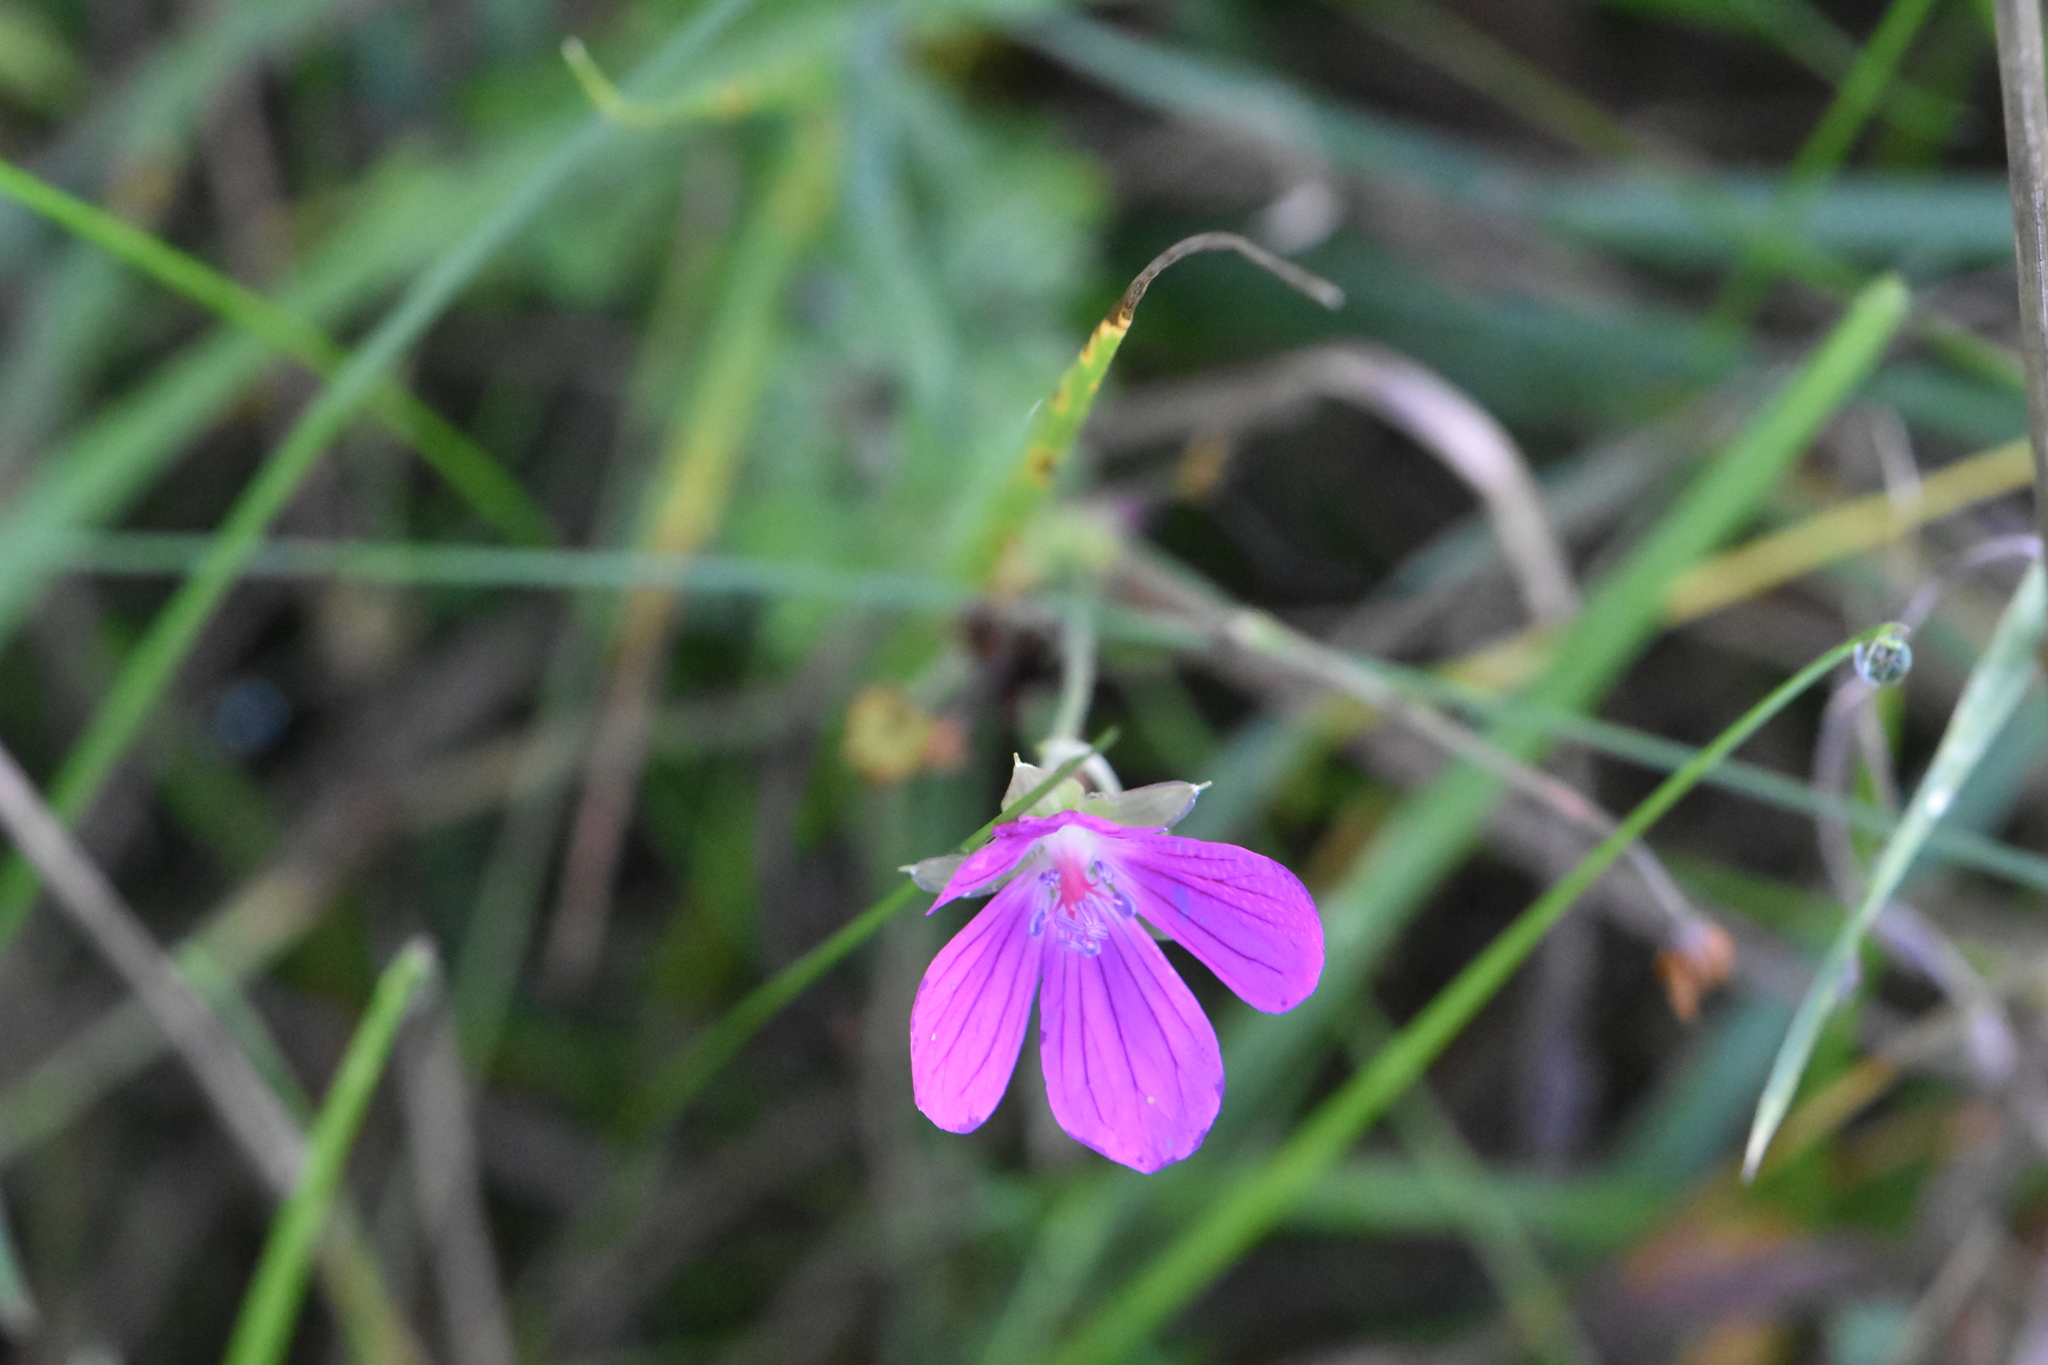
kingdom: Plantae
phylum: Tracheophyta
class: Magnoliopsida
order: Geraniales
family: Geraniaceae
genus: Geranium
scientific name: Geranium palustre
